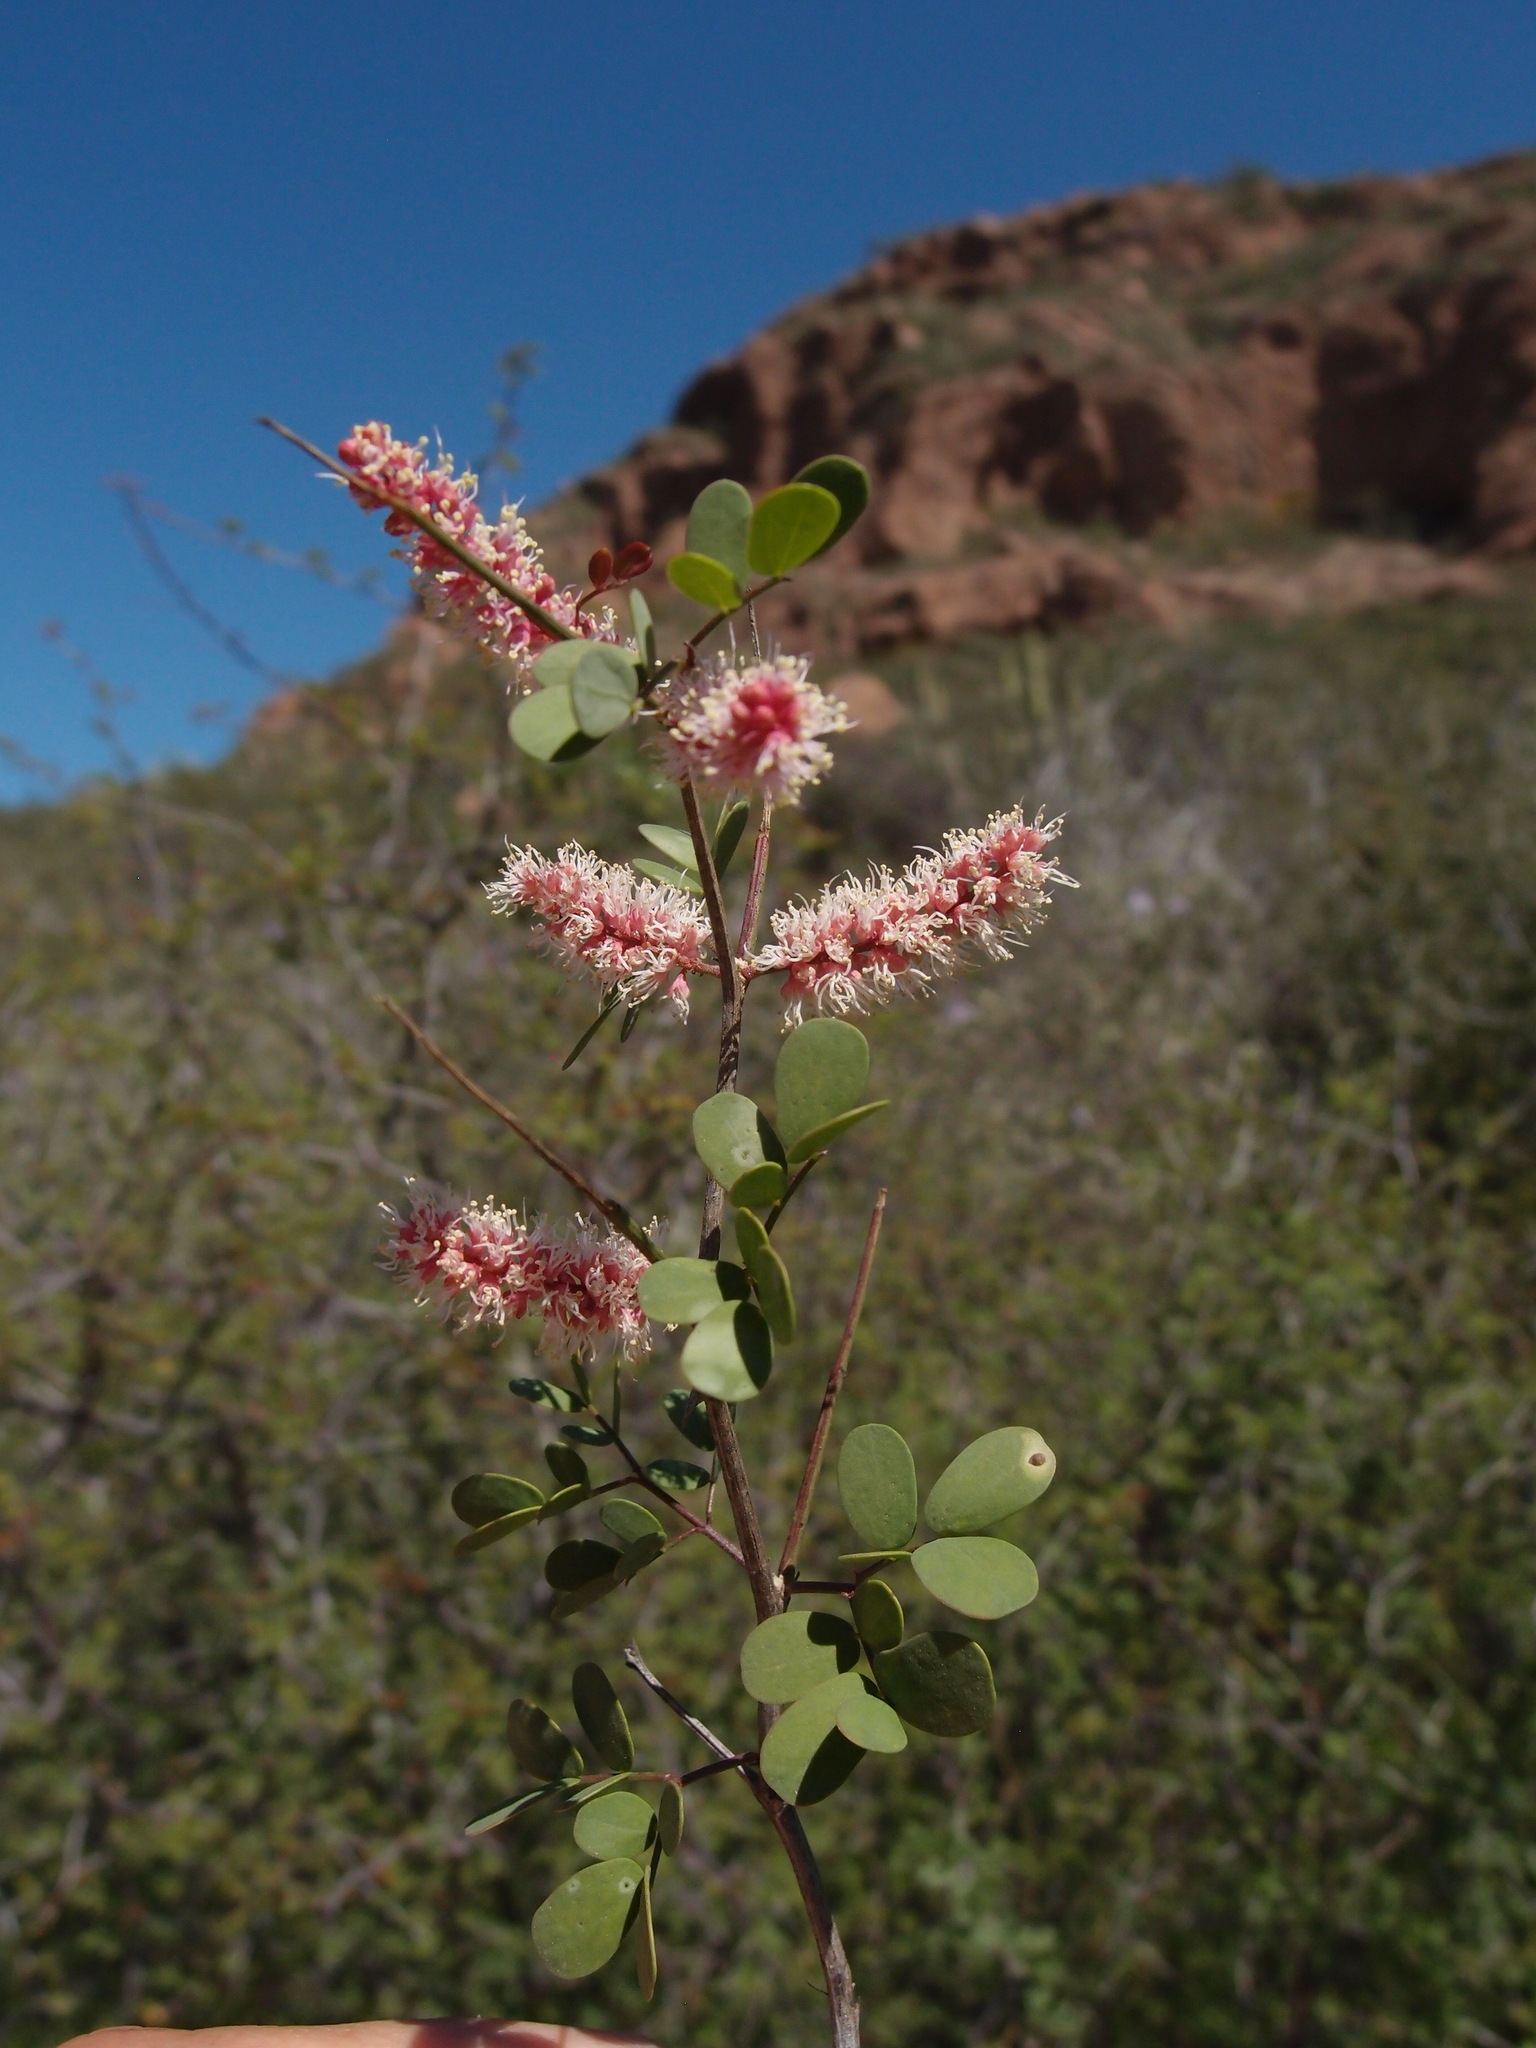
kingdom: Plantae
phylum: Tracheophyta
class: Magnoliopsida
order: Fabales
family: Fabaceae
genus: Mimosa
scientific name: Mimosa distachya
